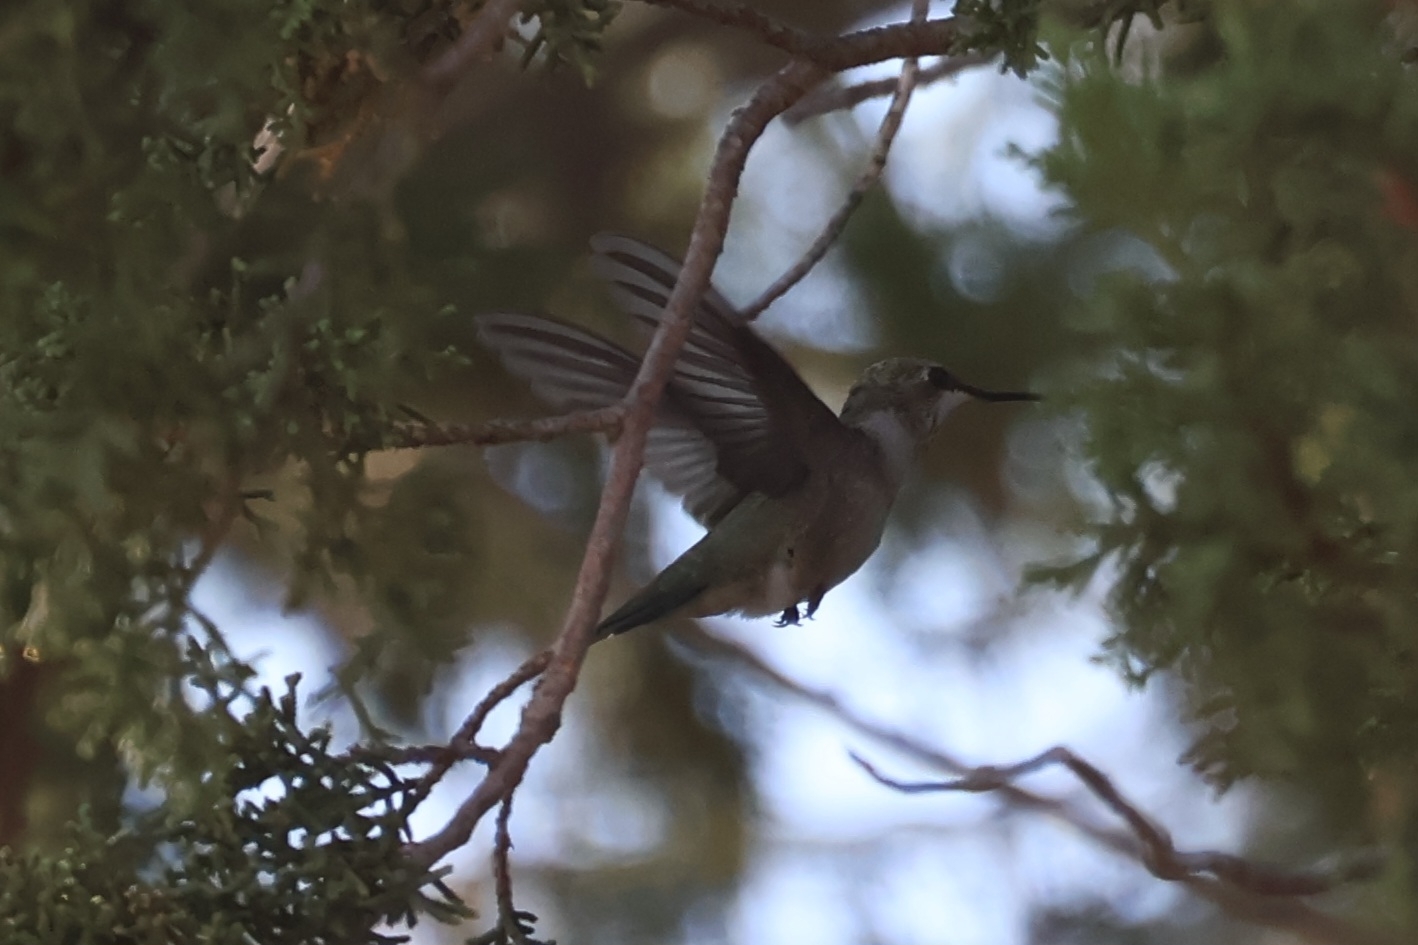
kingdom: Animalia
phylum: Chordata
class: Aves
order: Apodiformes
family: Trochilidae
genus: Archilochus
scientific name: Archilochus alexandri
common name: Black-chinned hummingbird
